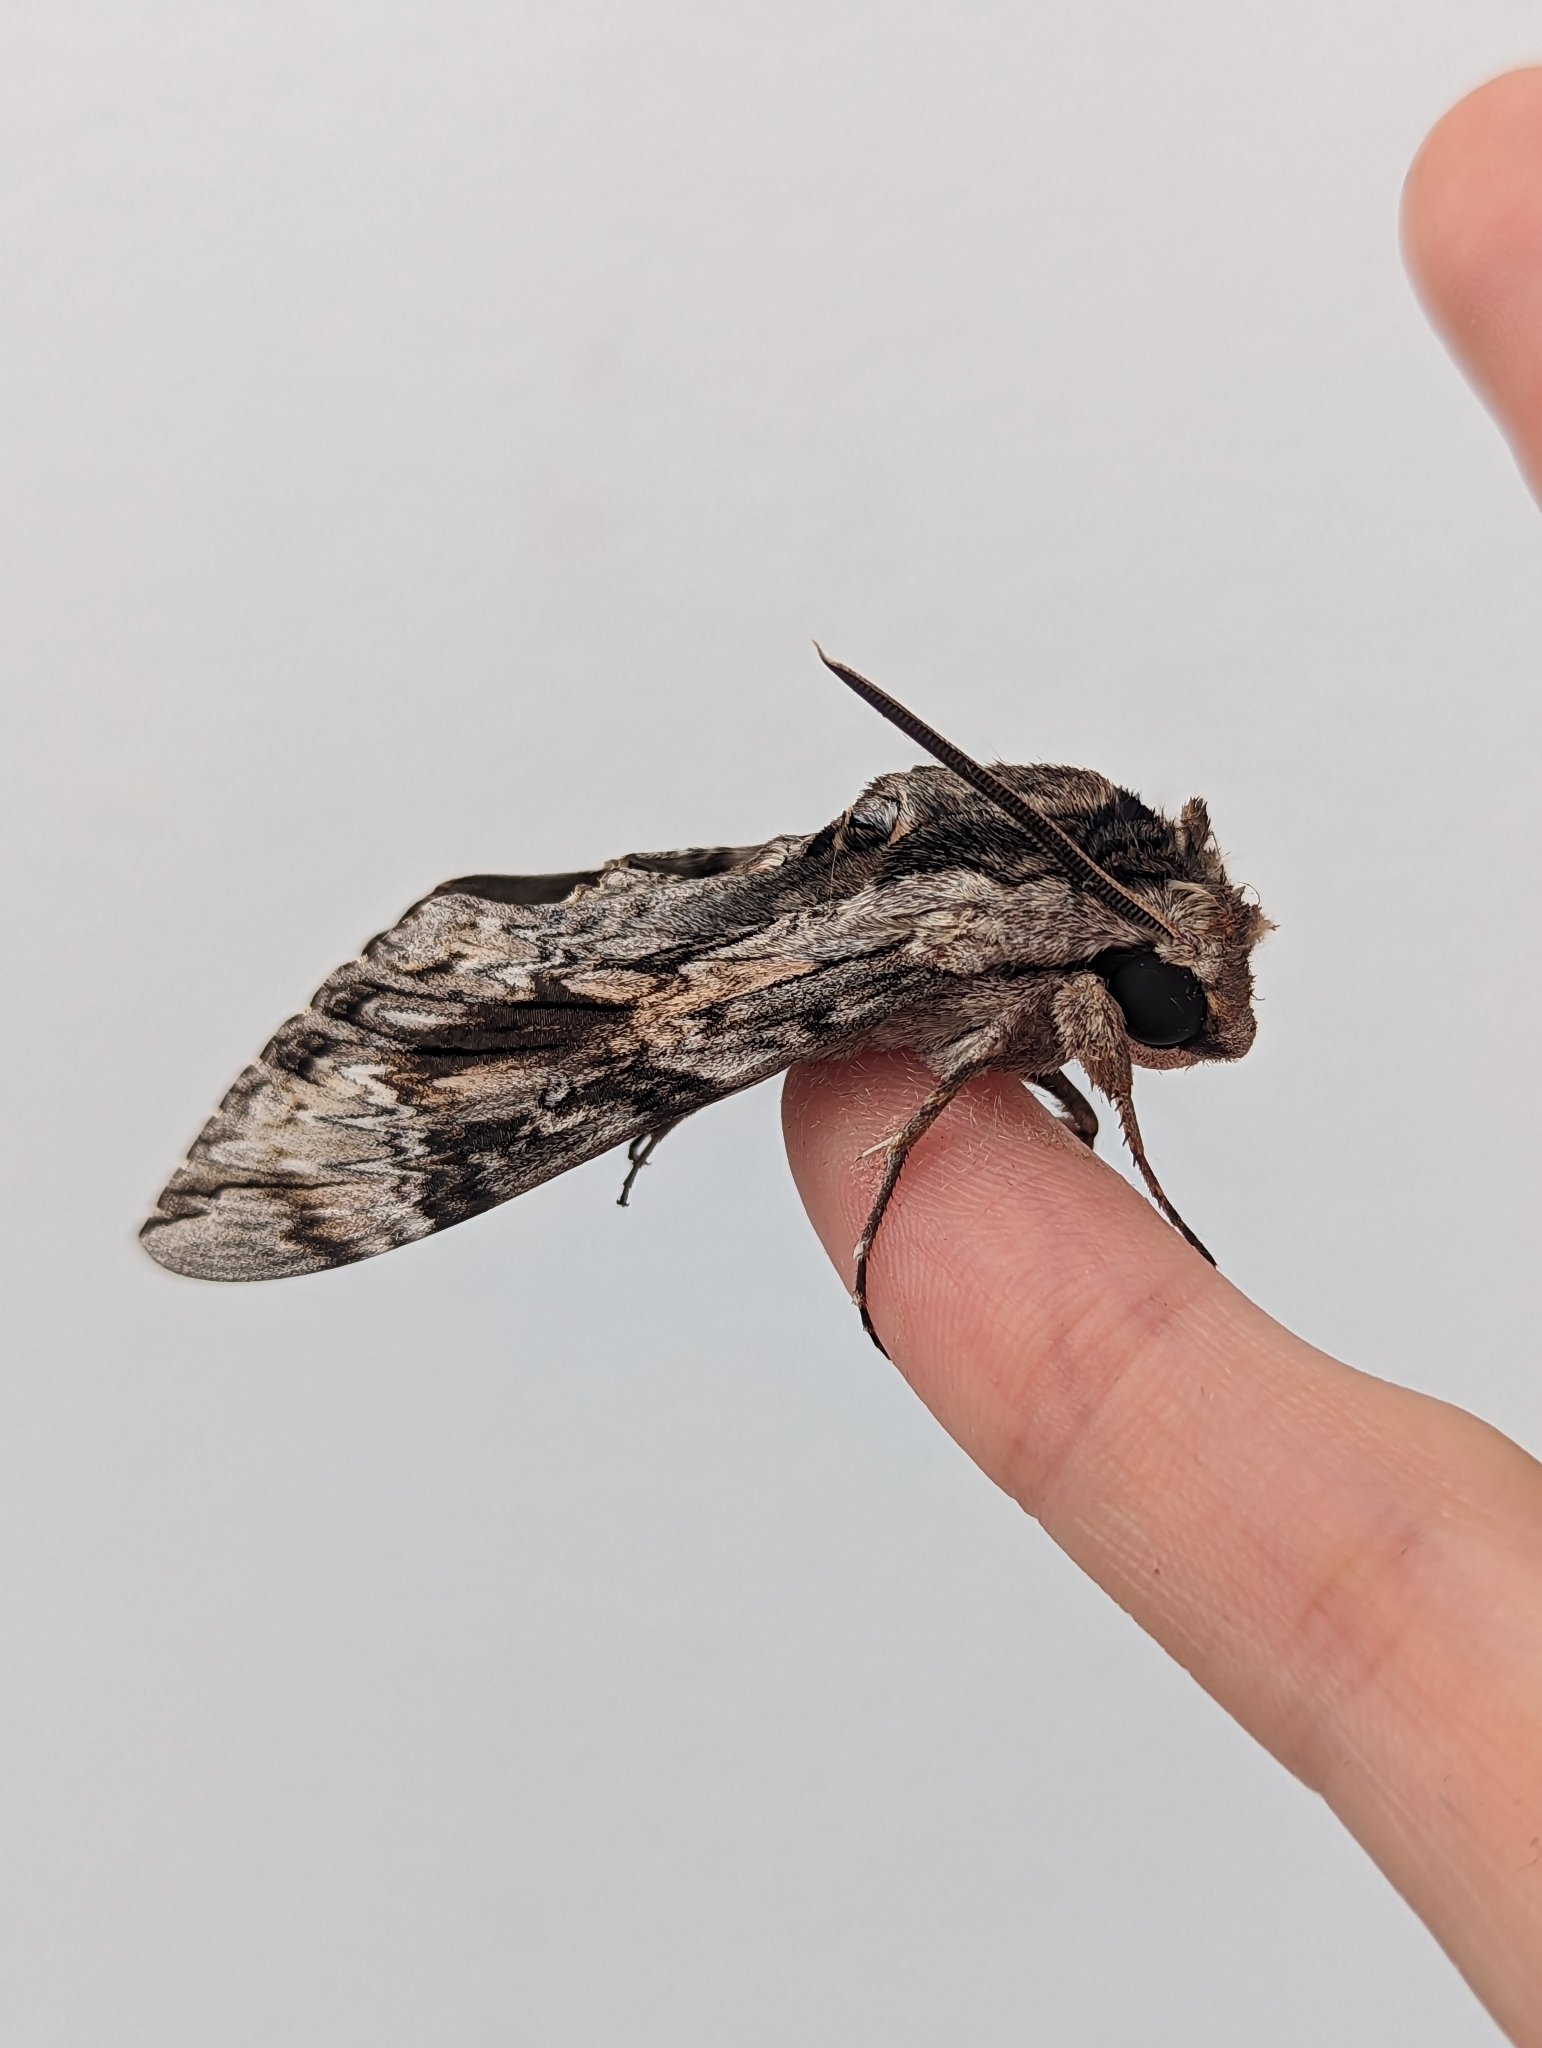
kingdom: Animalia
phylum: Arthropoda
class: Insecta
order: Lepidoptera
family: Sphingidae
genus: Agrius
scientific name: Agrius convolvuli
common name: Convolvulus hawkmoth
